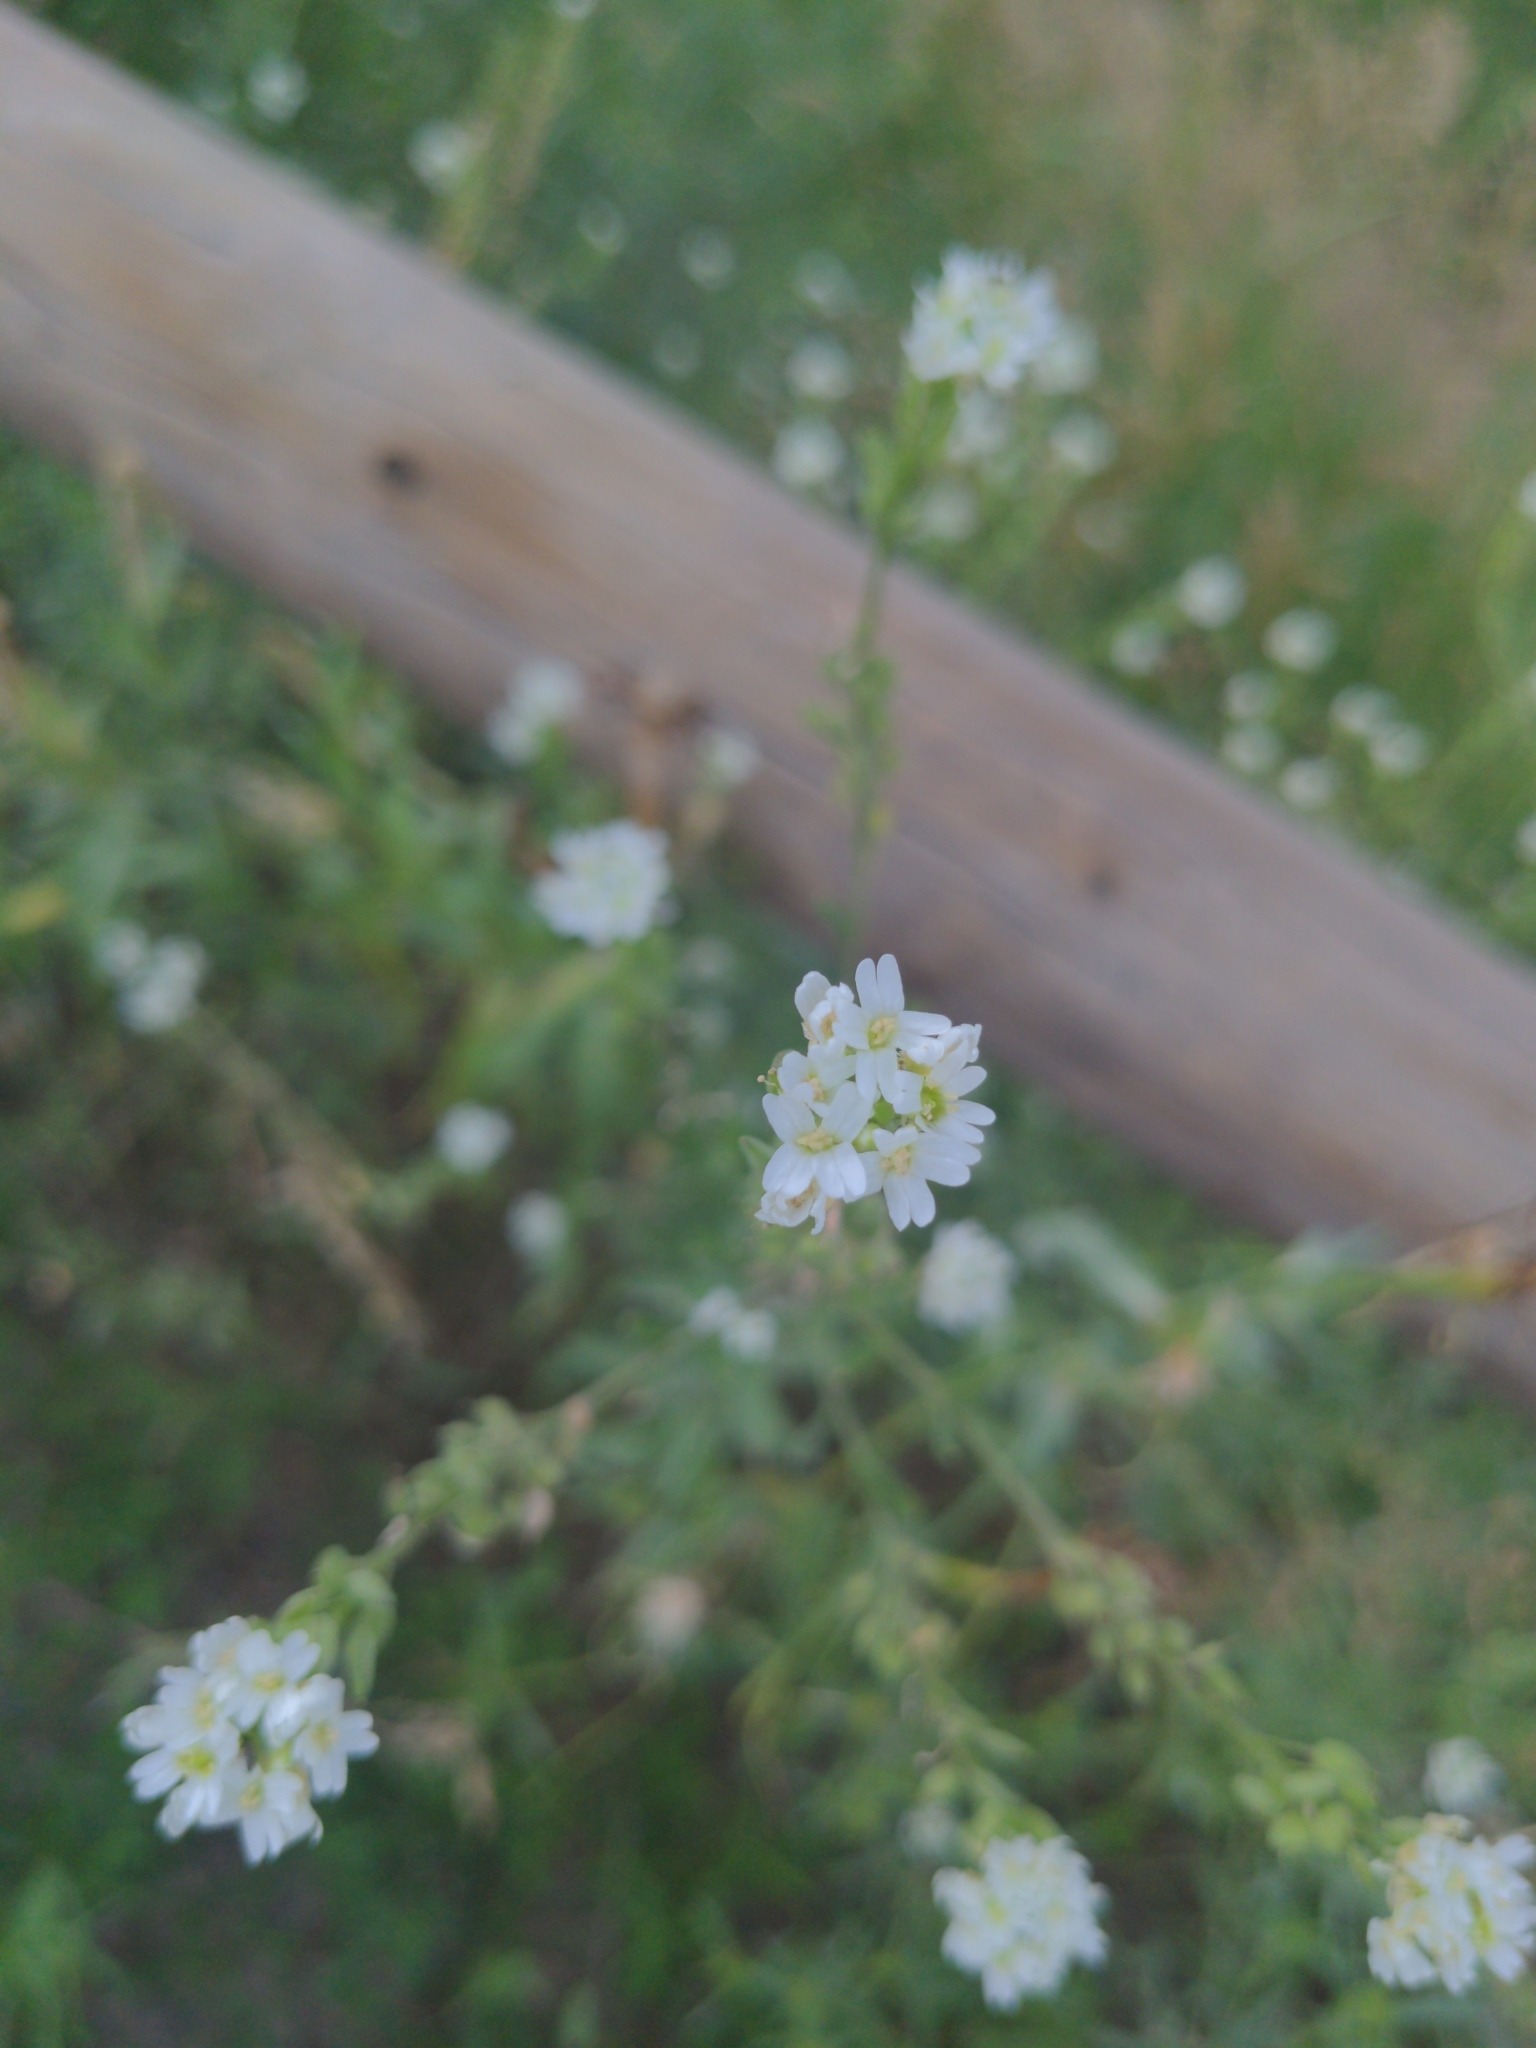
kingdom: Plantae
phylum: Tracheophyta
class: Magnoliopsida
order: Brassicales
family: Brassicaceae
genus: Berteroa
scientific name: Berteroa incana
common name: Hoary alison
